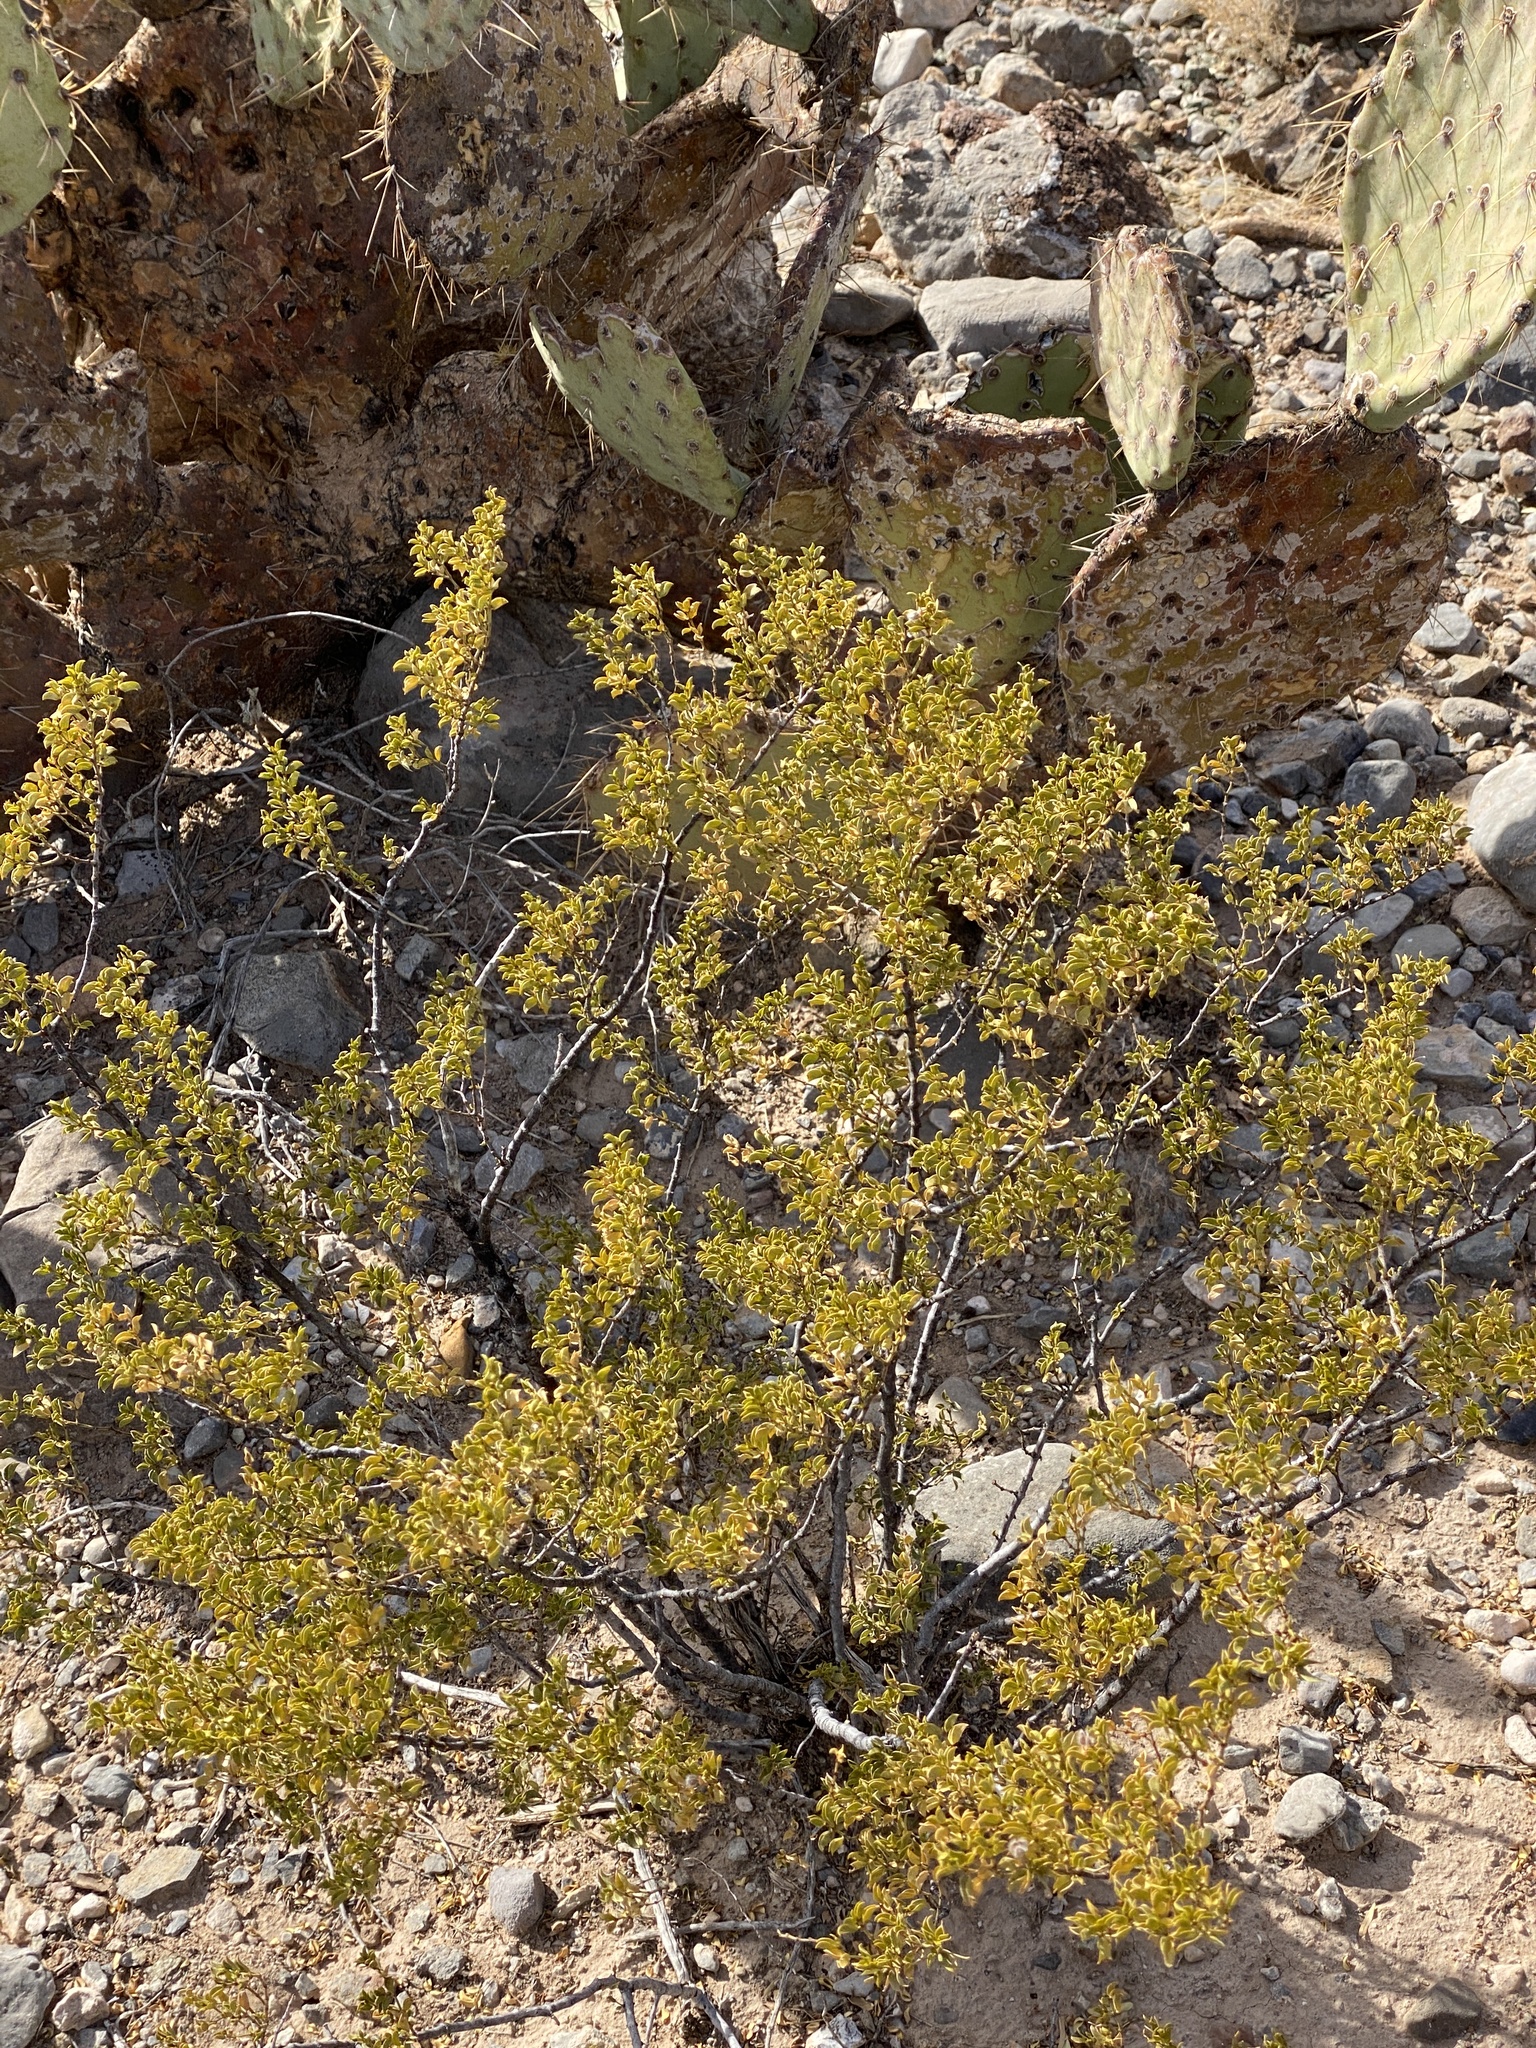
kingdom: Plantae
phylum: Tracheophyta
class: Magnoliopsida
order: Zygophyllales
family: Zygophyllaceae
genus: Larrea
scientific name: Larrea tridentata
